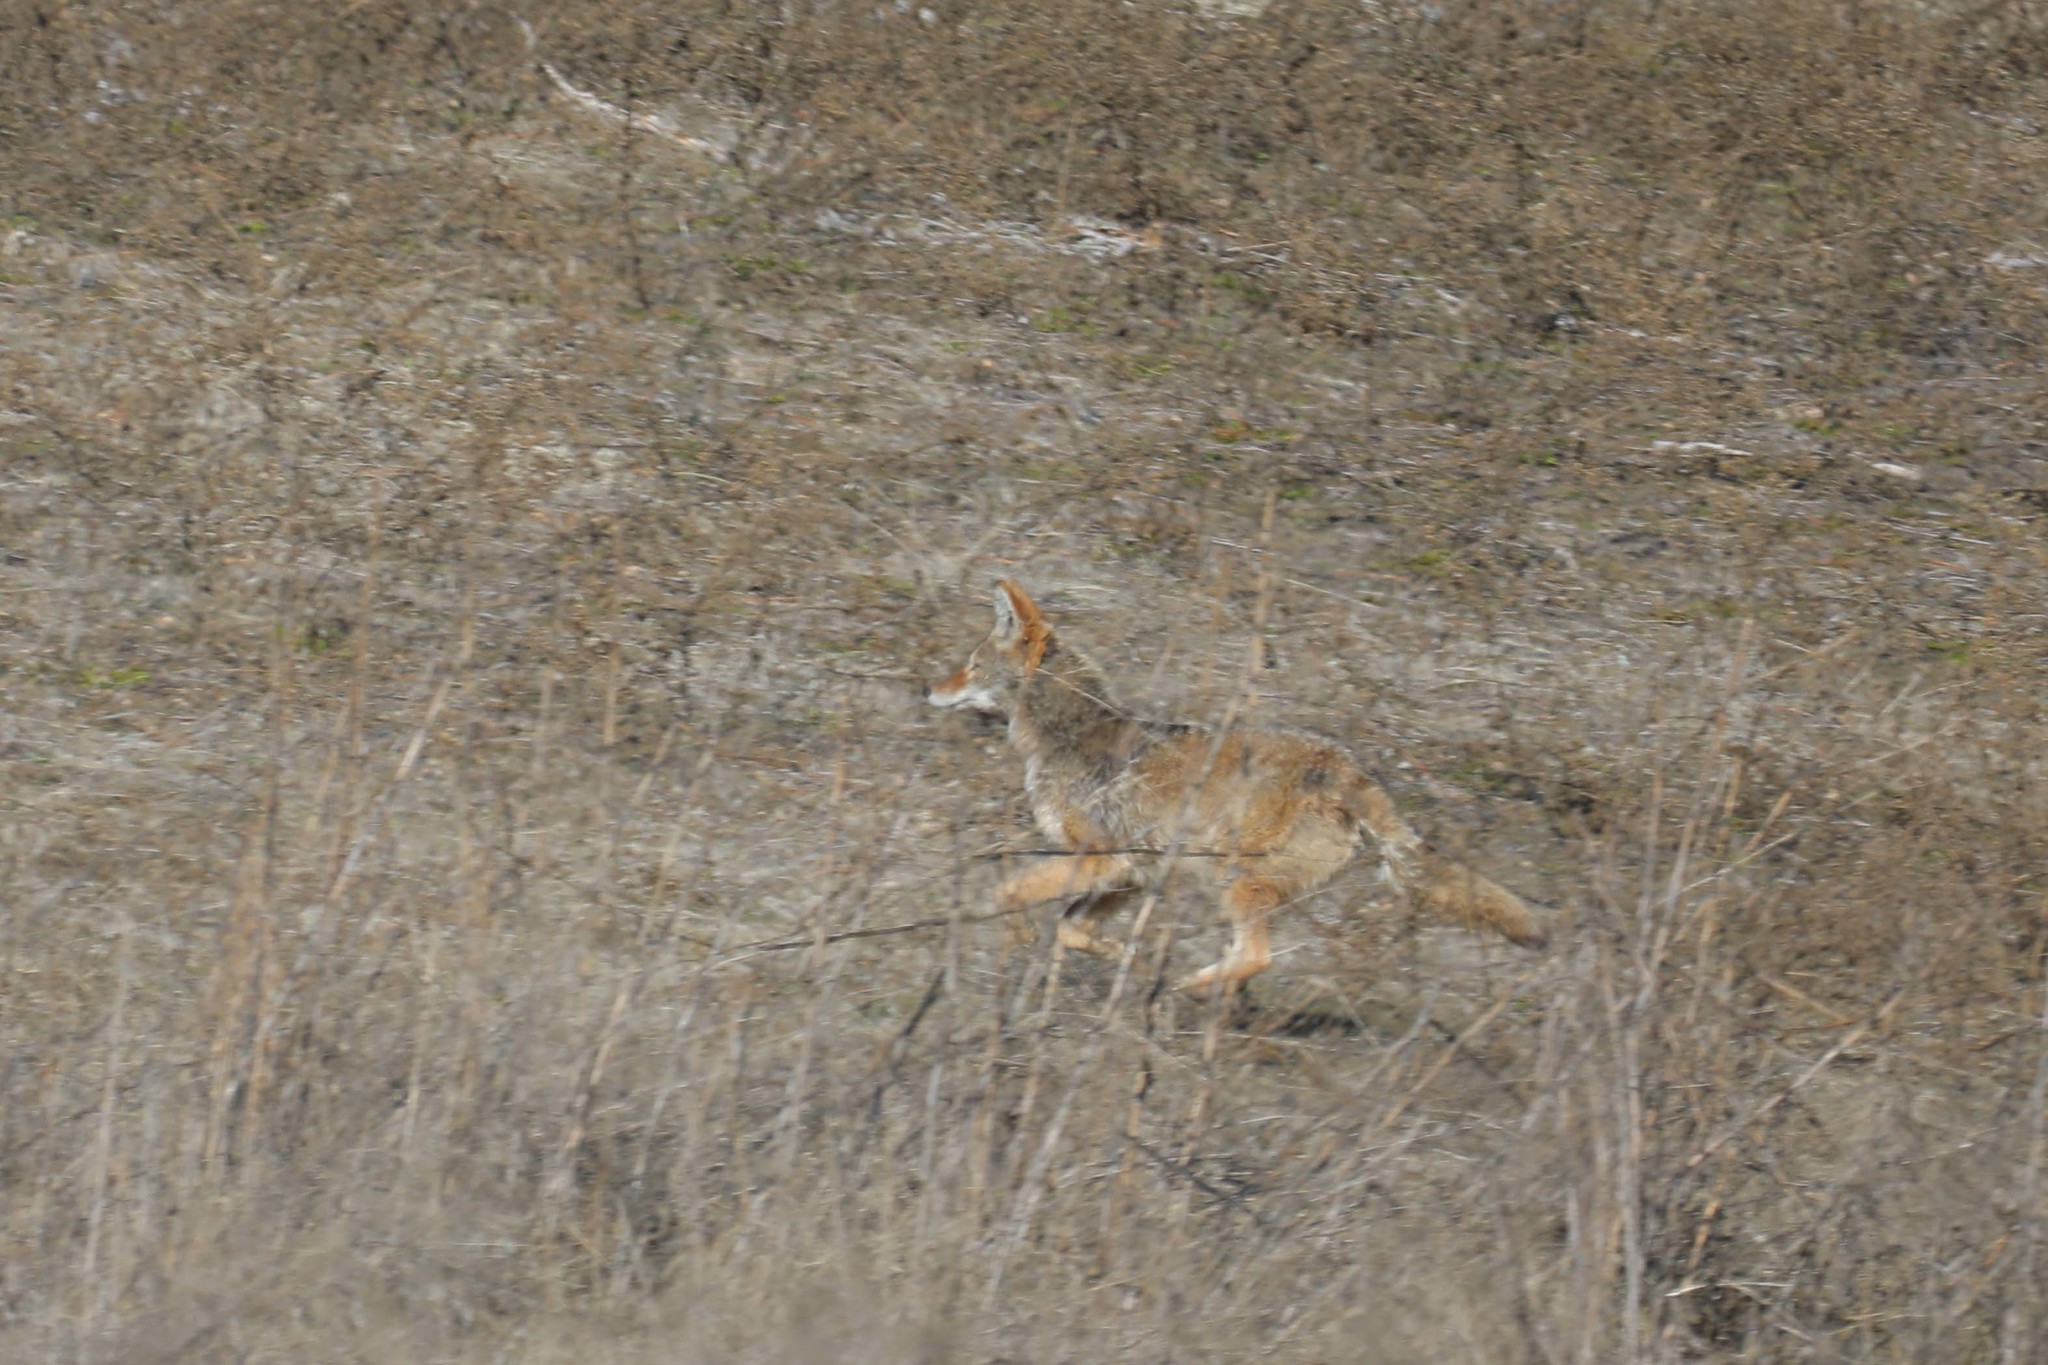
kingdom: Animalia
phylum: Chordata
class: Mammalia
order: Carnivora
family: Canidae
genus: Canis
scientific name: Canis latrans
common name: Coyote
